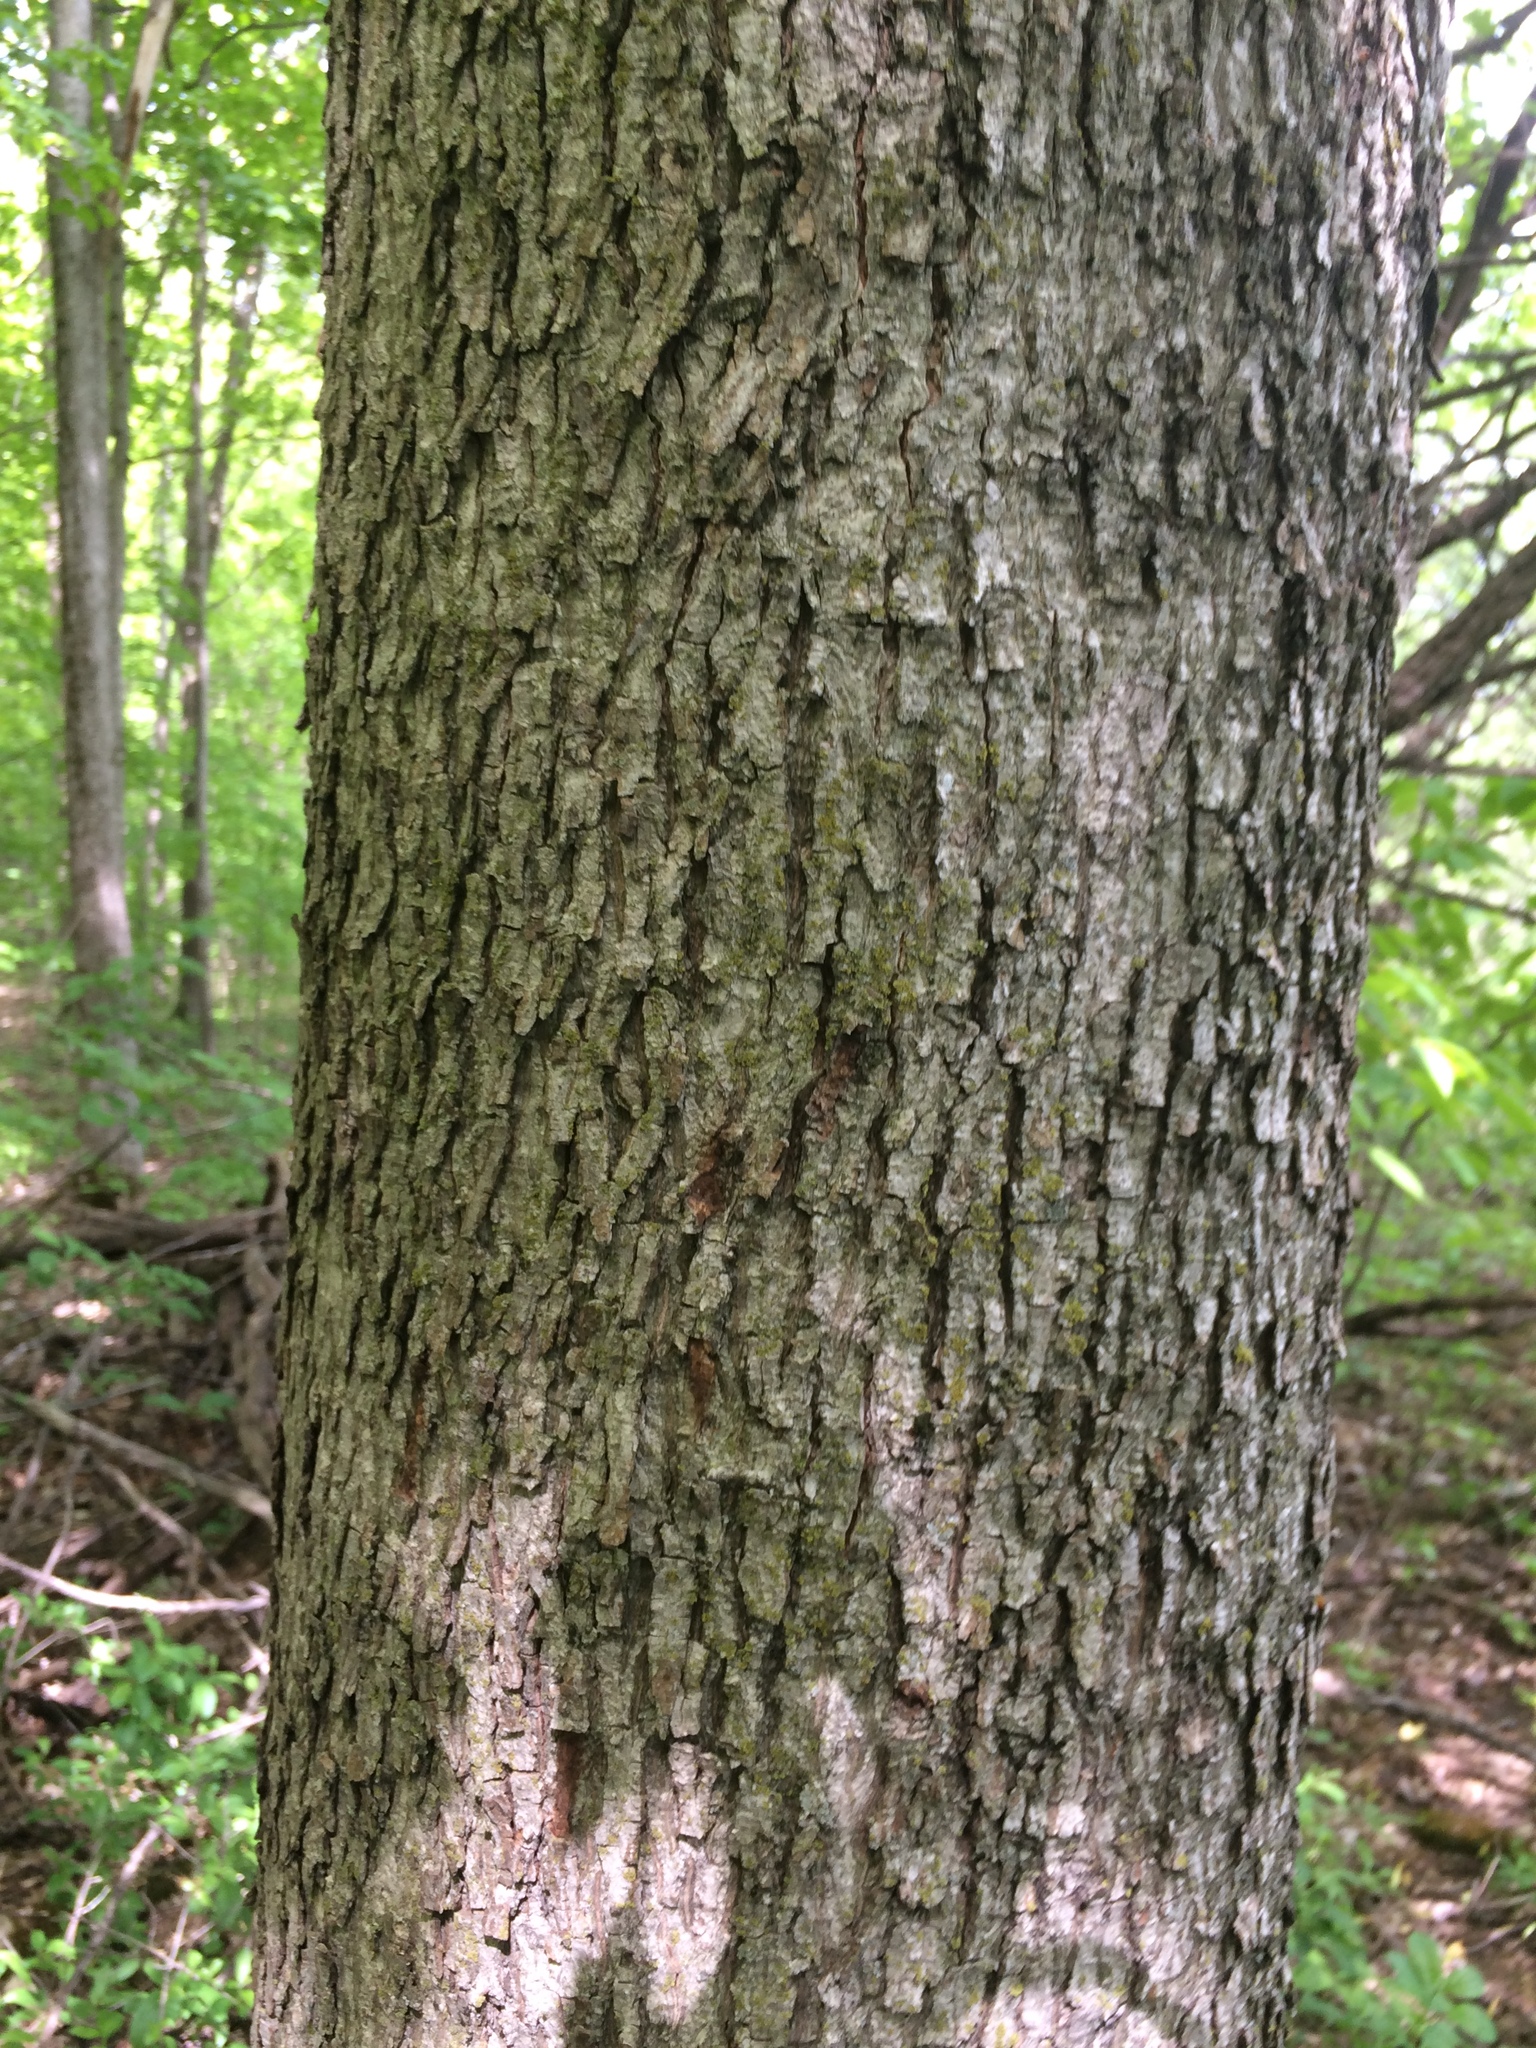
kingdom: Plantae
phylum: Tracheophyta
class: Magnoliopsida
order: Fagales
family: Juglandaceae
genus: Carya
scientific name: Carya cordiformis
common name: Bitternut hickory
